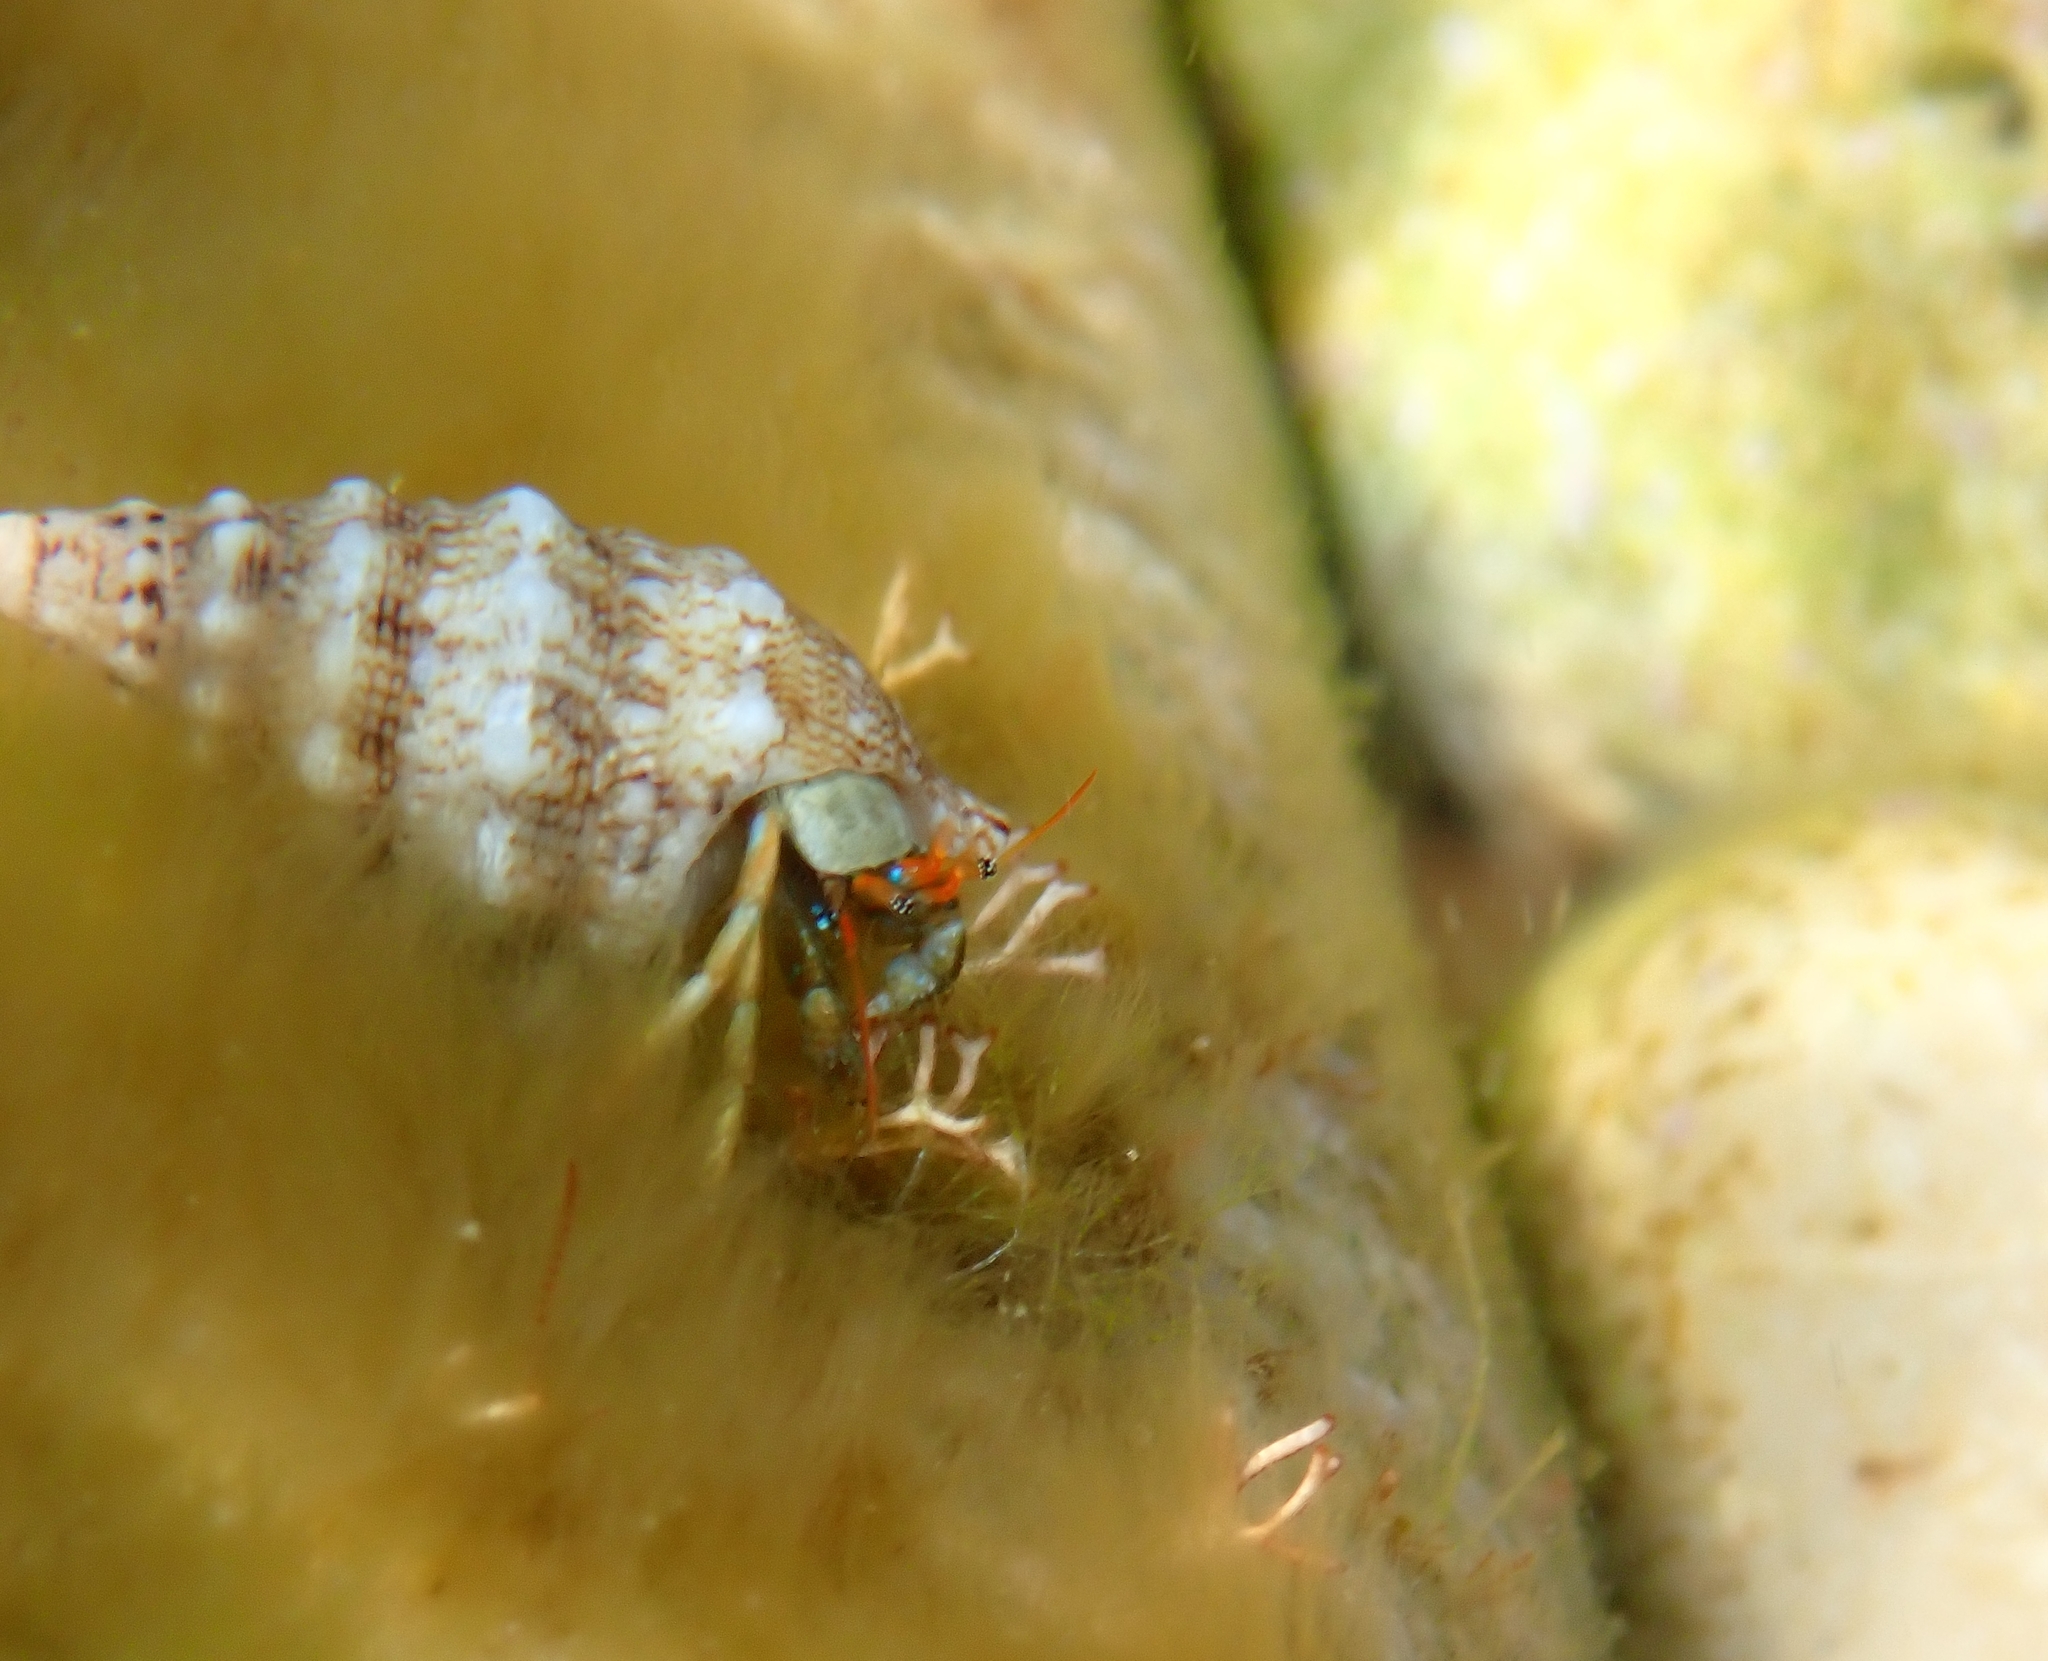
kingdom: Animalia
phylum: Arthropoda
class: Malacostraca
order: Decapoda
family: Diogenidae
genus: Clibanarius
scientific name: Clibanarius erythropus
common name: Hermit crab
